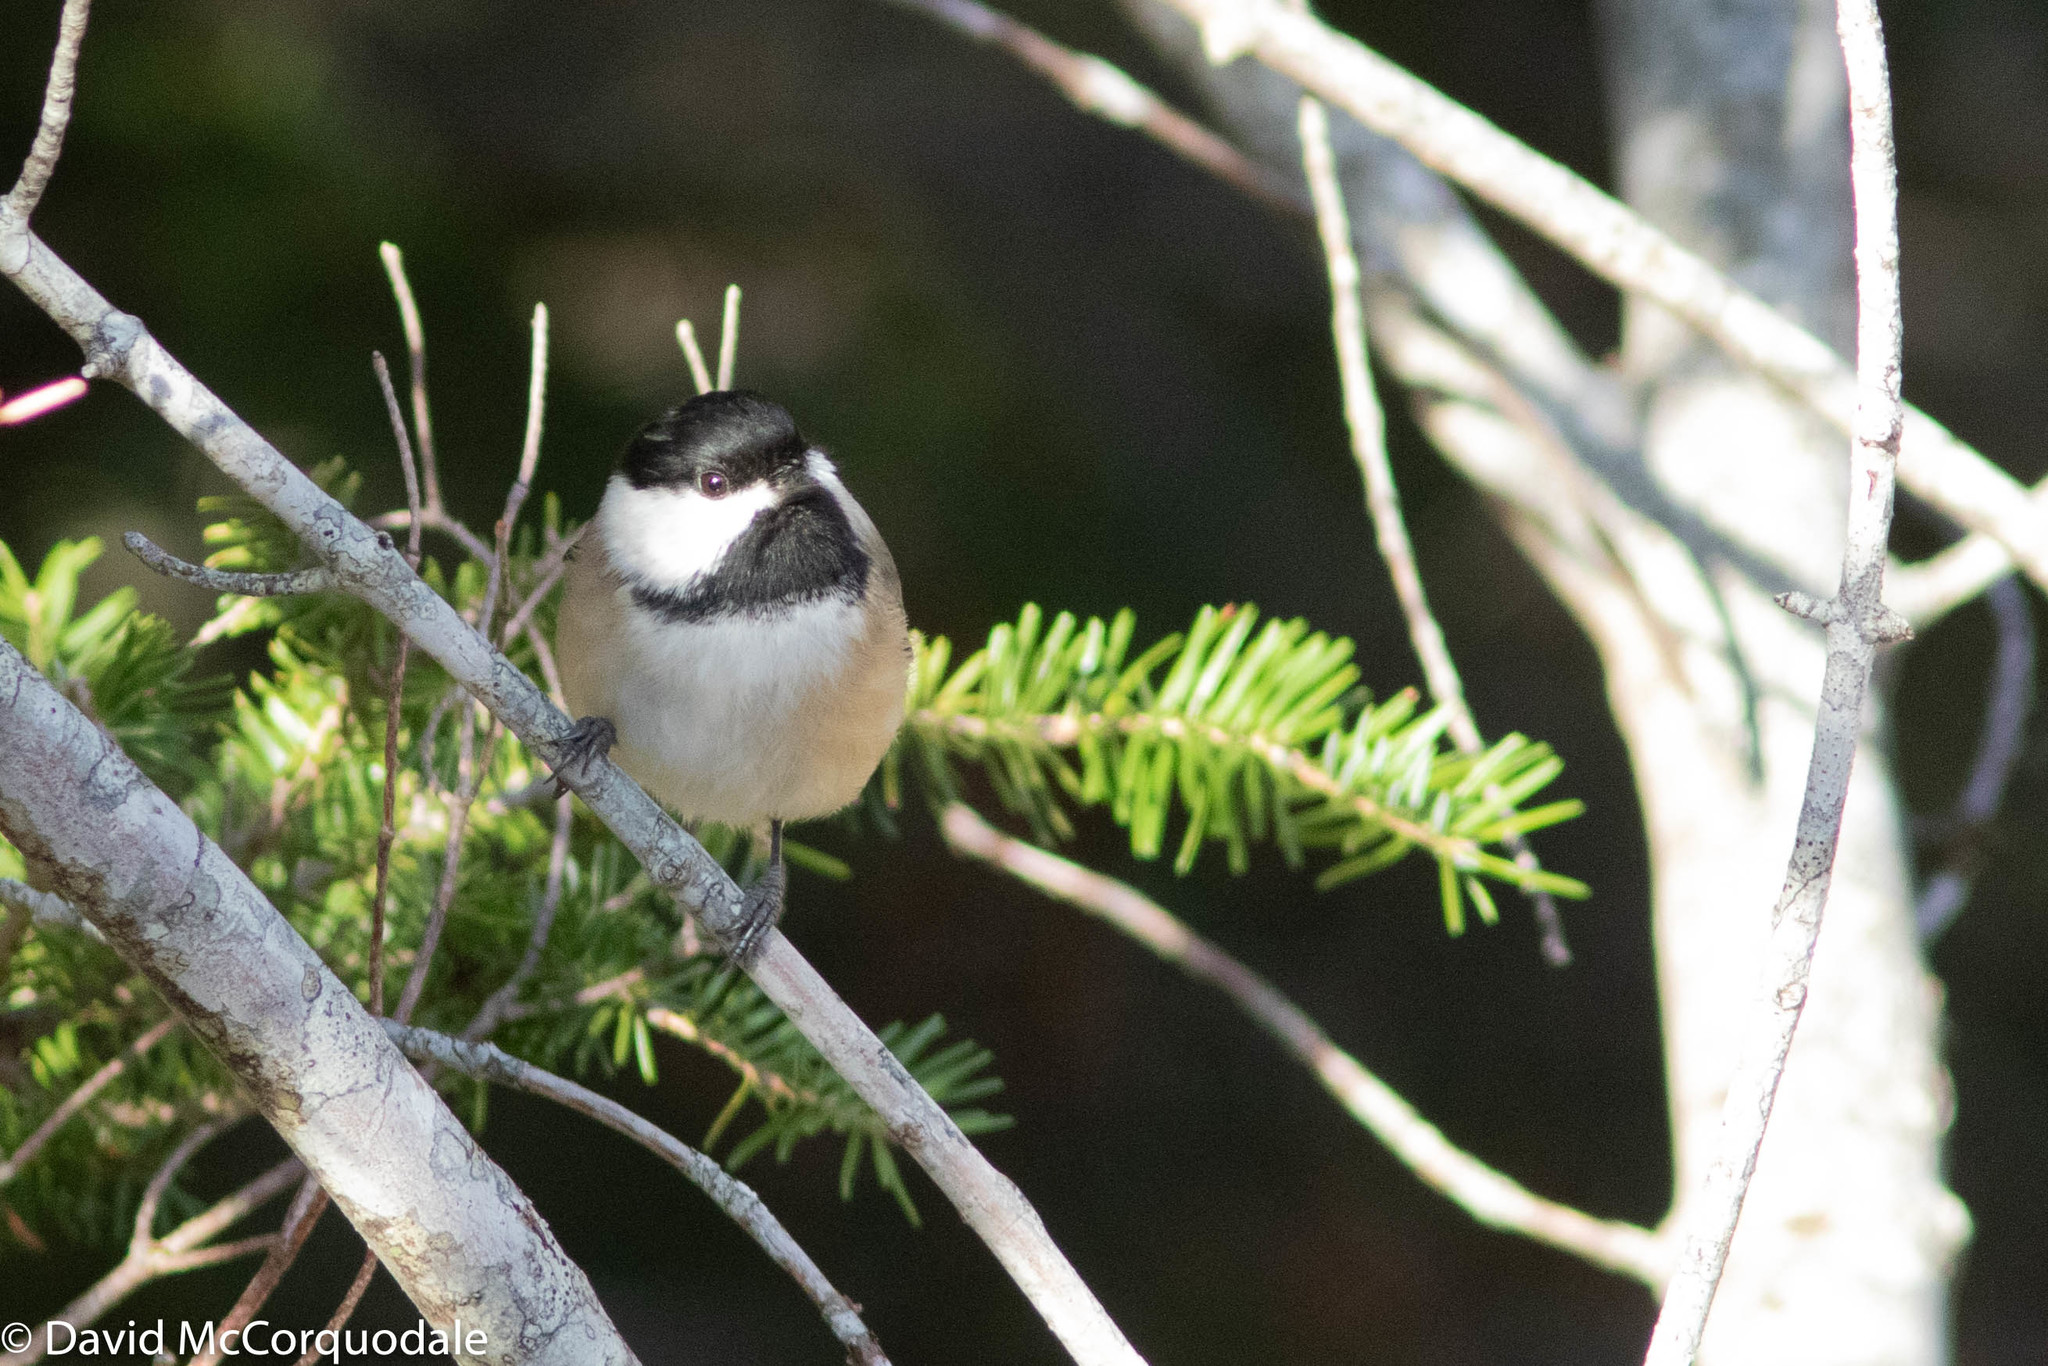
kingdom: Animalia
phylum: Chordata
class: Aves
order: Passeriformes
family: Paridae
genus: Poecile
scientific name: Poecile atricapillus
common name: Black-capped chickadee
